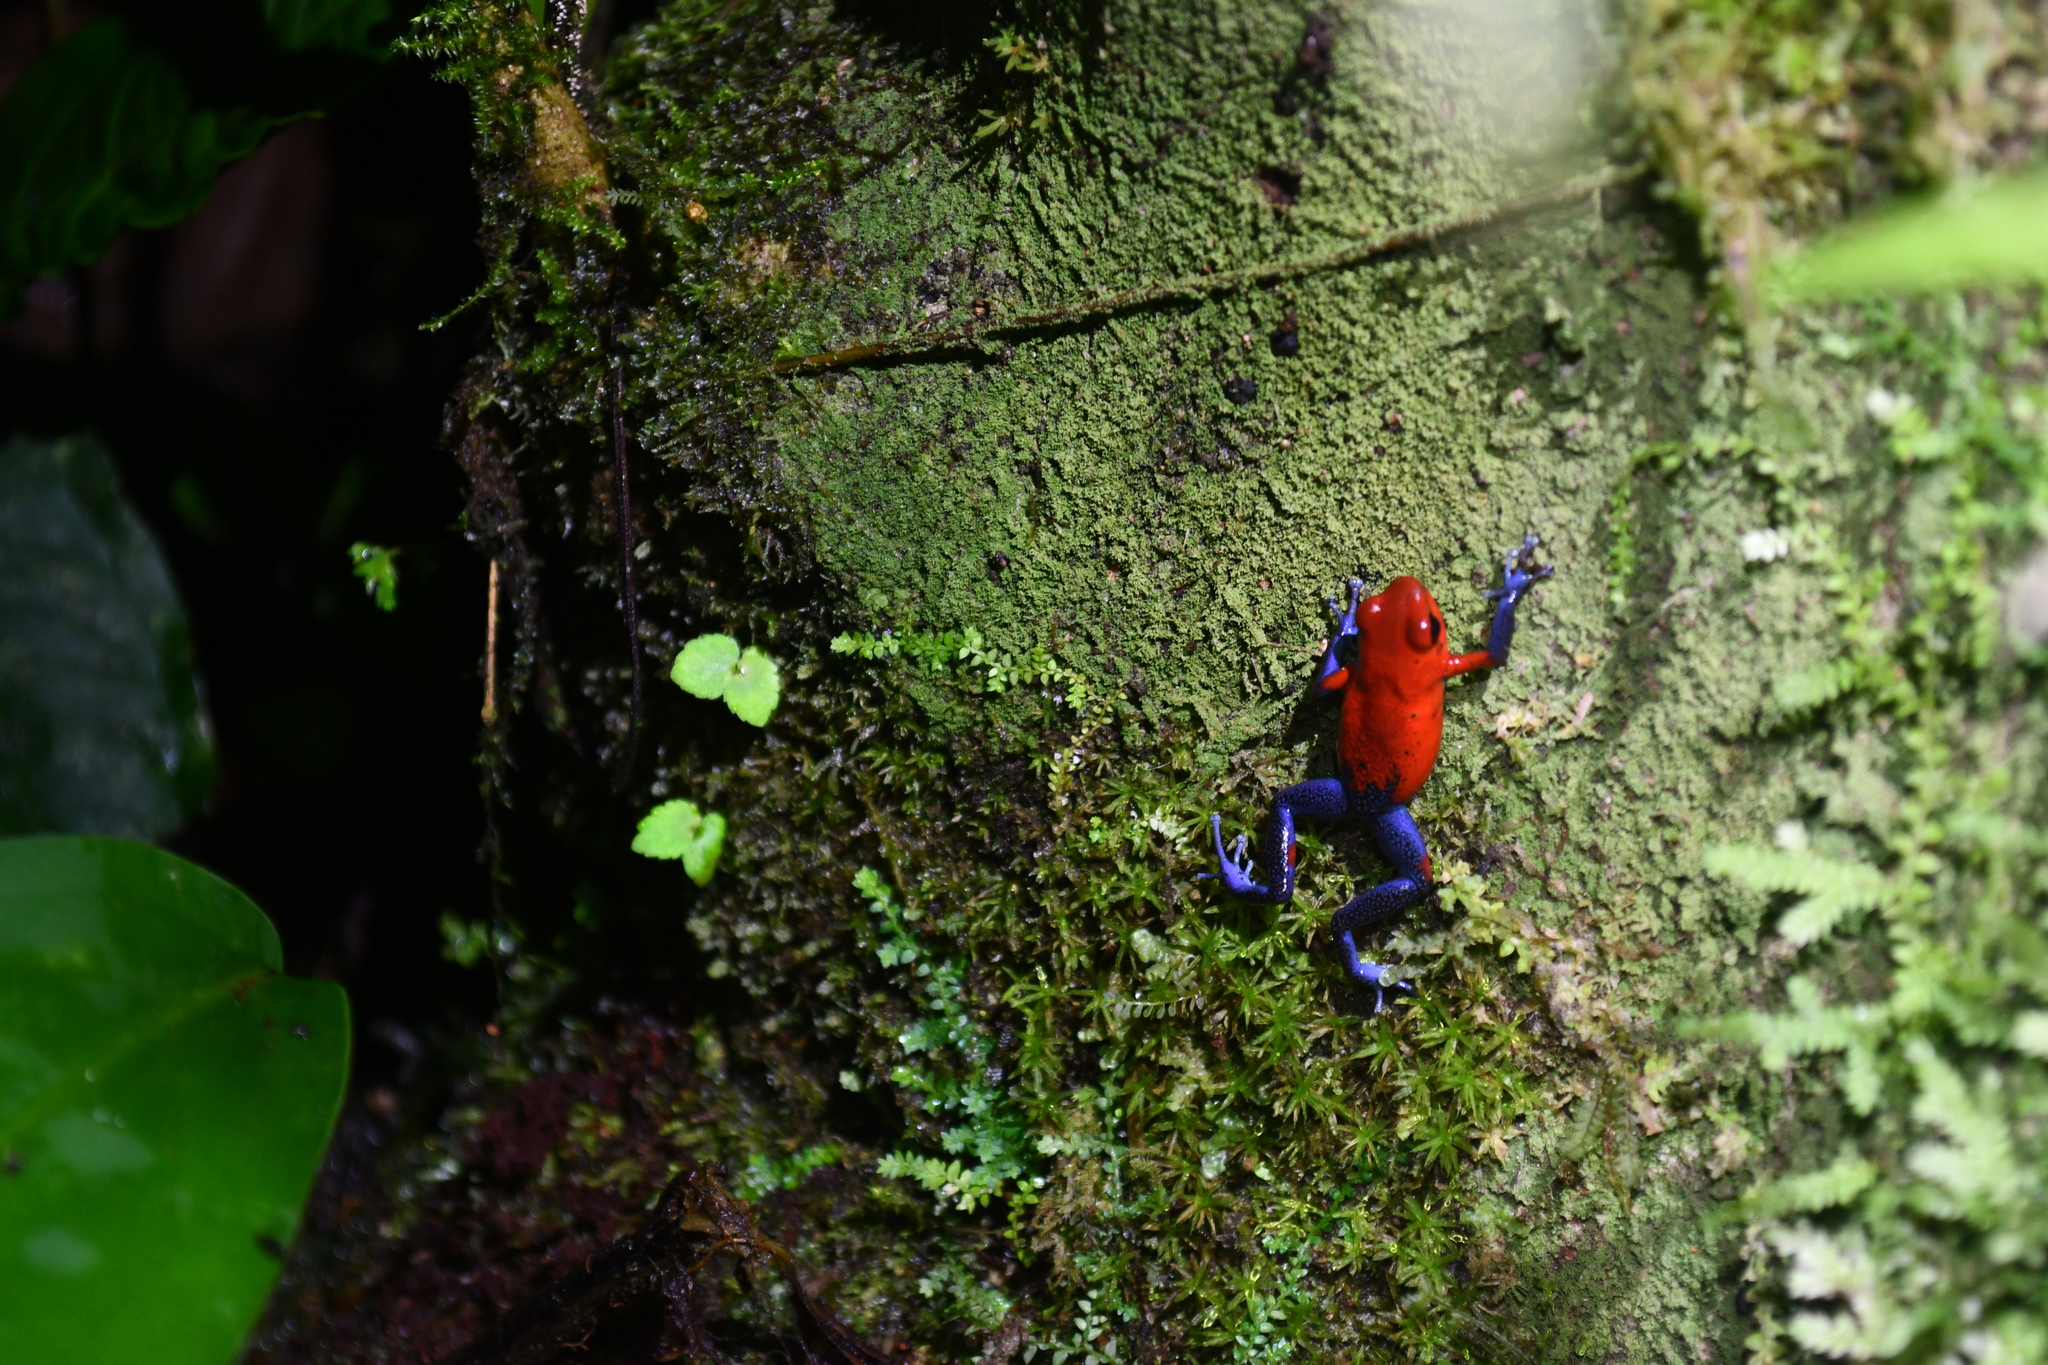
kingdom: Animalia
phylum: Chordata
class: Amphibia
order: Anura
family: Dendrobatidae
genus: Oophaga
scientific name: Oophaga pumilio
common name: Flaming poison frog
